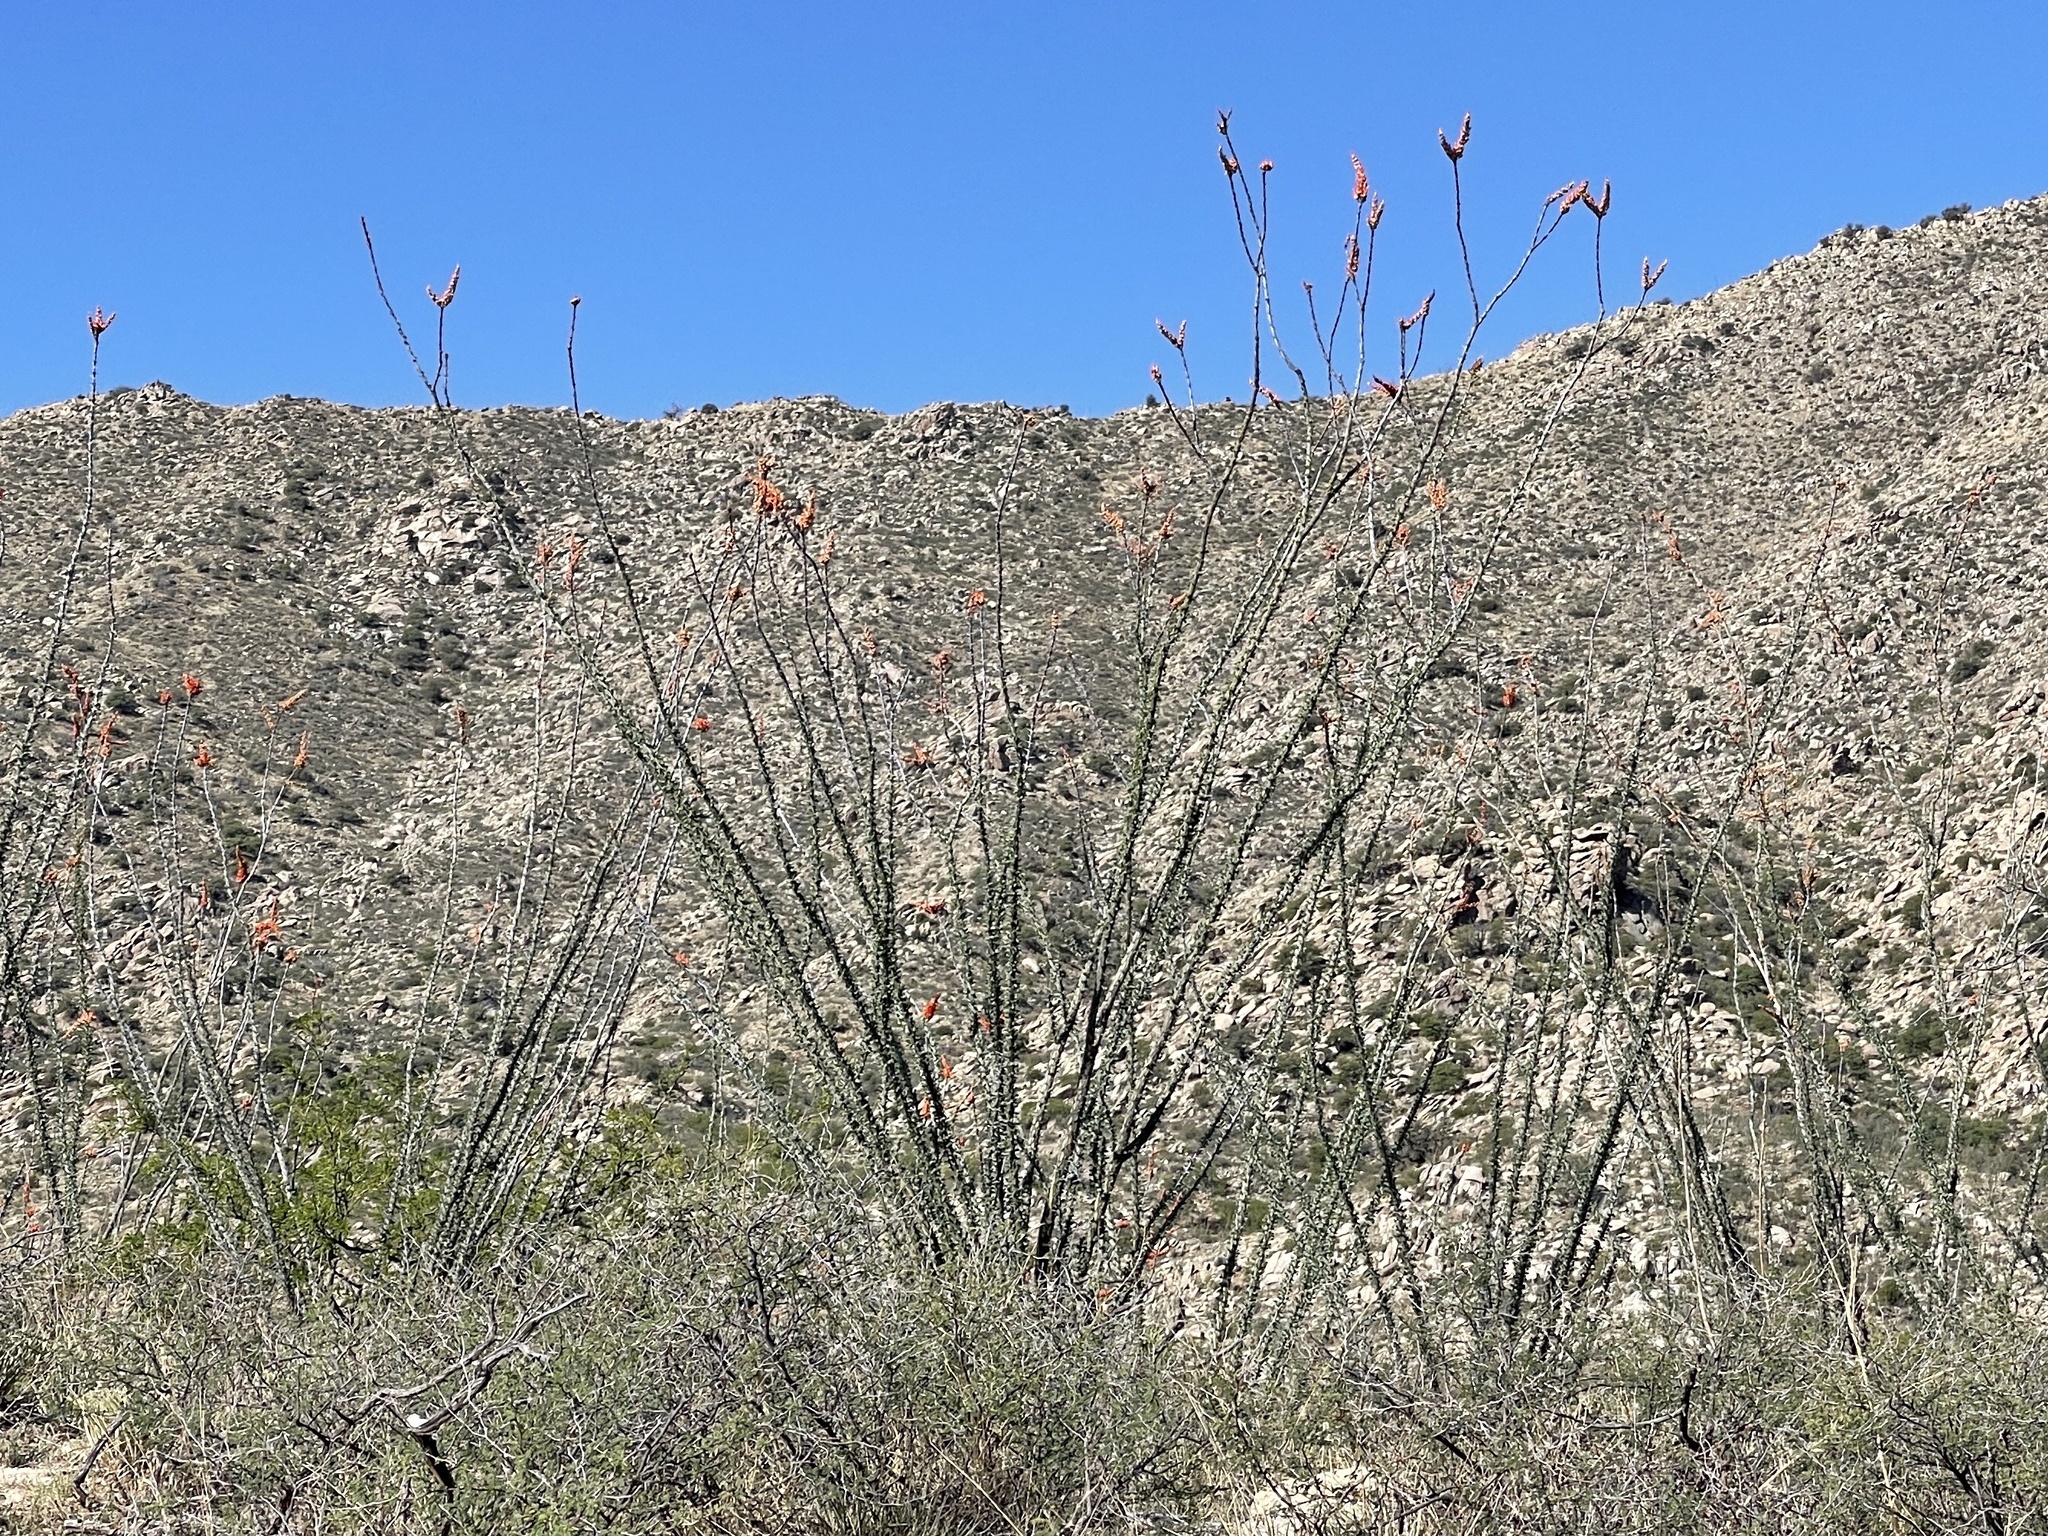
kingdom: Plantae
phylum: Tracheophyta
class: Magnoliopsida
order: Ericales
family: Fouquieriaceae
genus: Fouquieria
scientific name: Fouquieria splendens
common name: Vine-cactus
